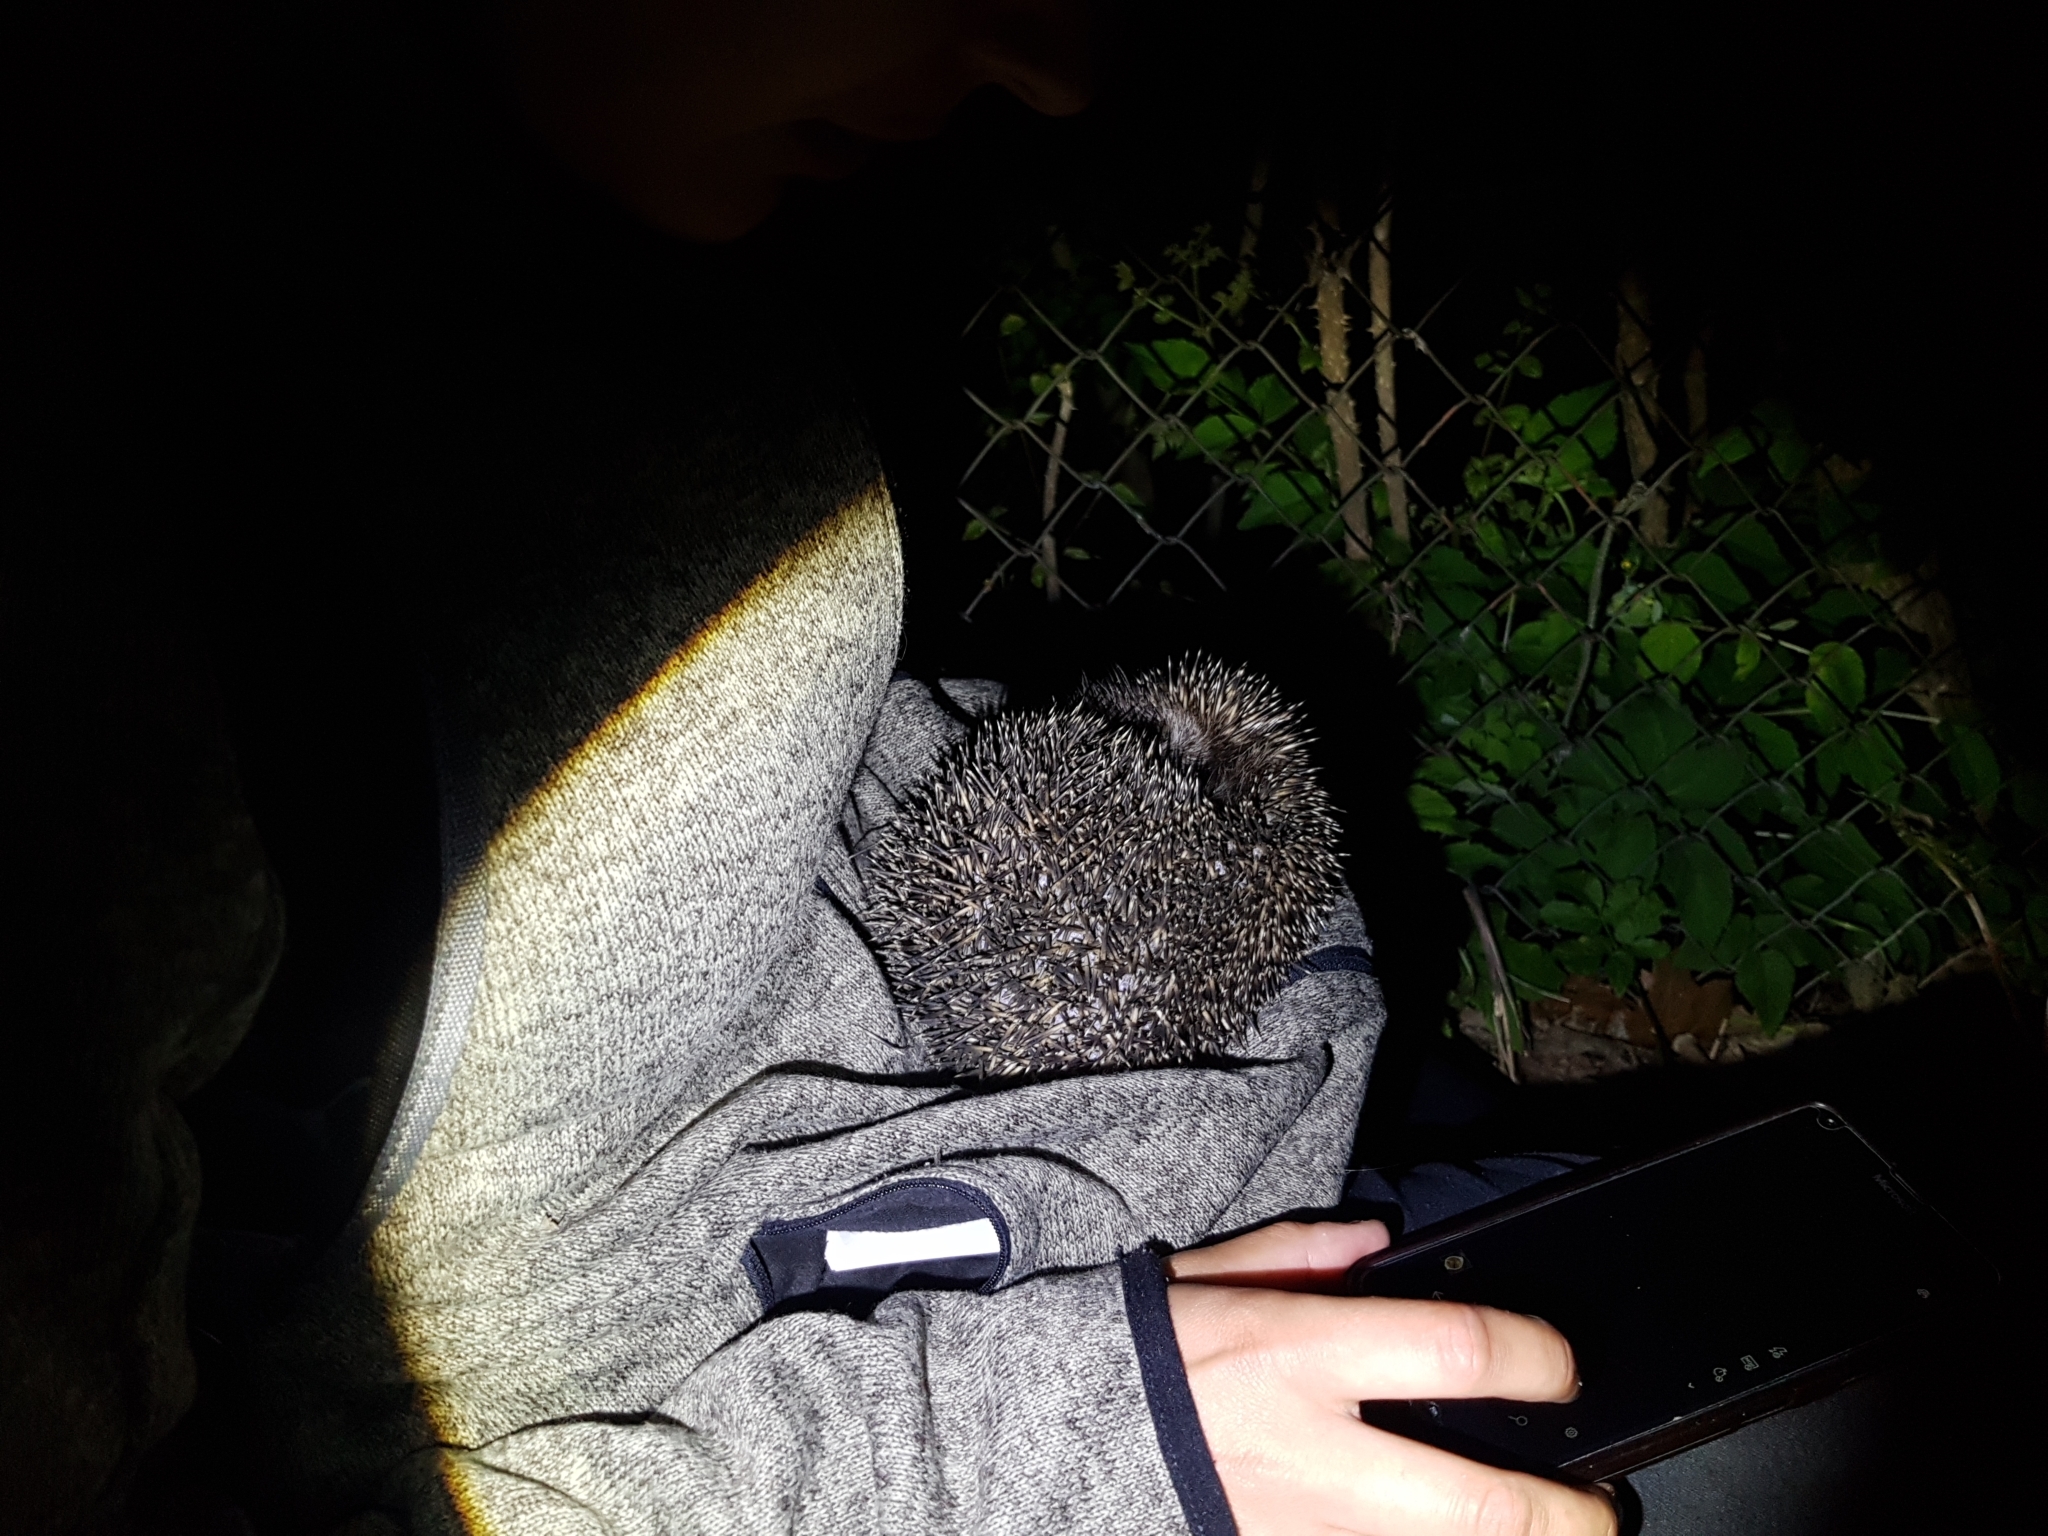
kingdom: Animalia
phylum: Chordata
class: Mammalia
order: Erinaceomorpha
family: Erinaceidae
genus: Erinaceus
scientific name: Erinaceus roumanicus
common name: Northern white-breasted hedgehog
